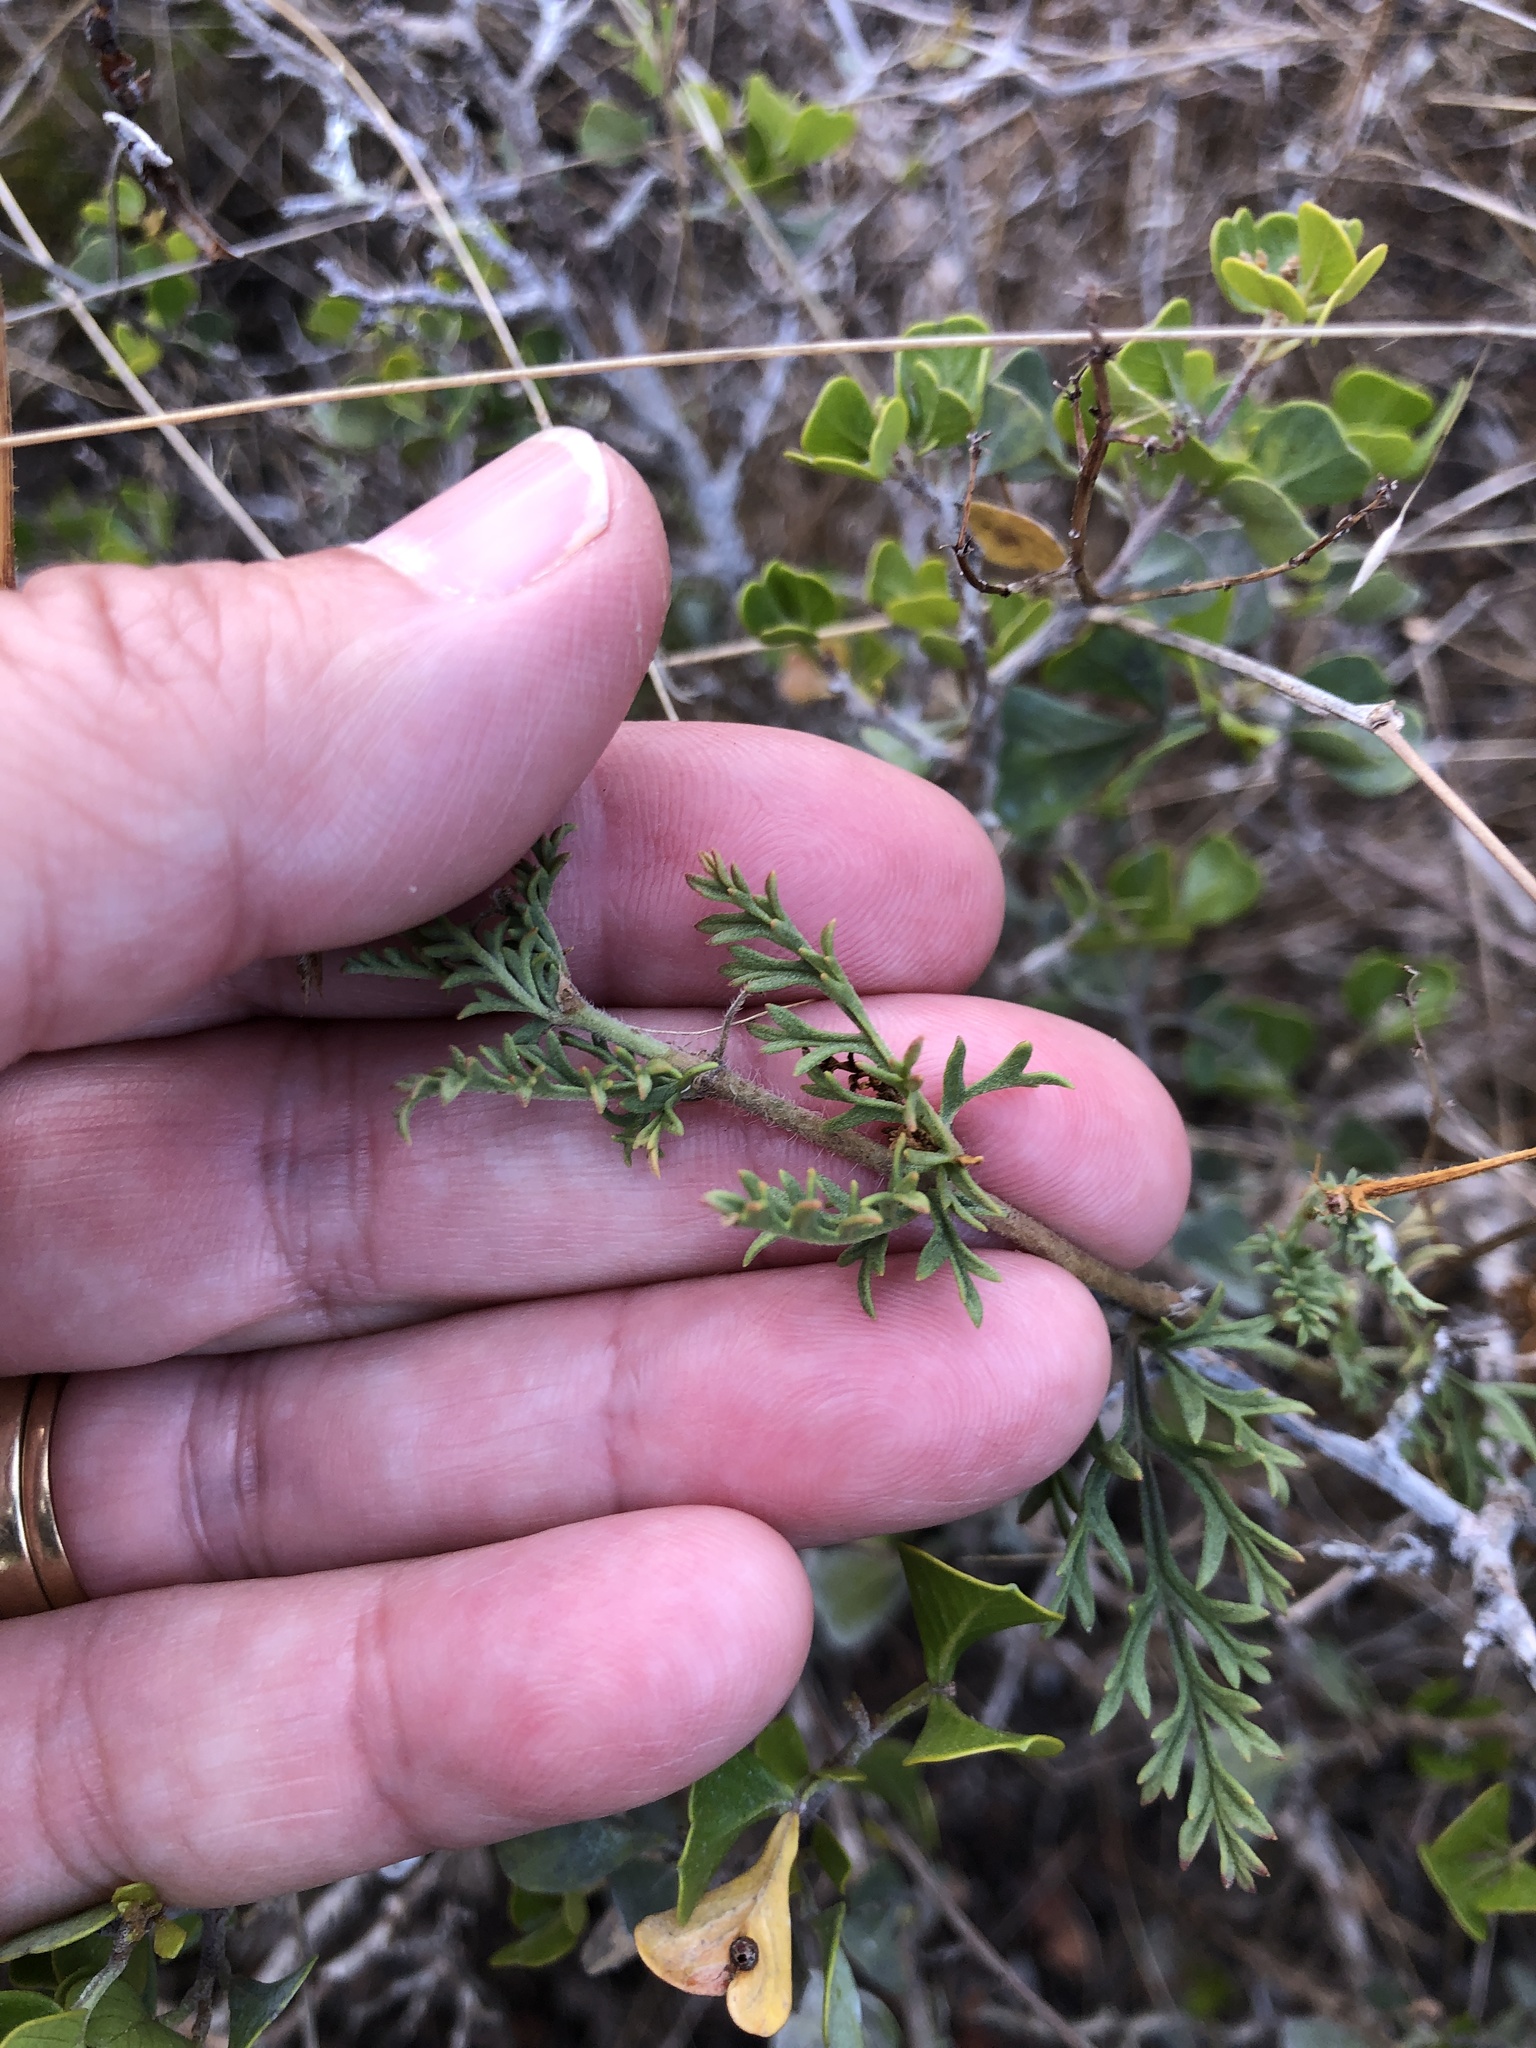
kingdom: Plantae
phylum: Tracheophyta
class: Magnoliopsida
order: Geraniales
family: Geraniaceae
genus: Pelargonium
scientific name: Pelargonium caucalifolium
